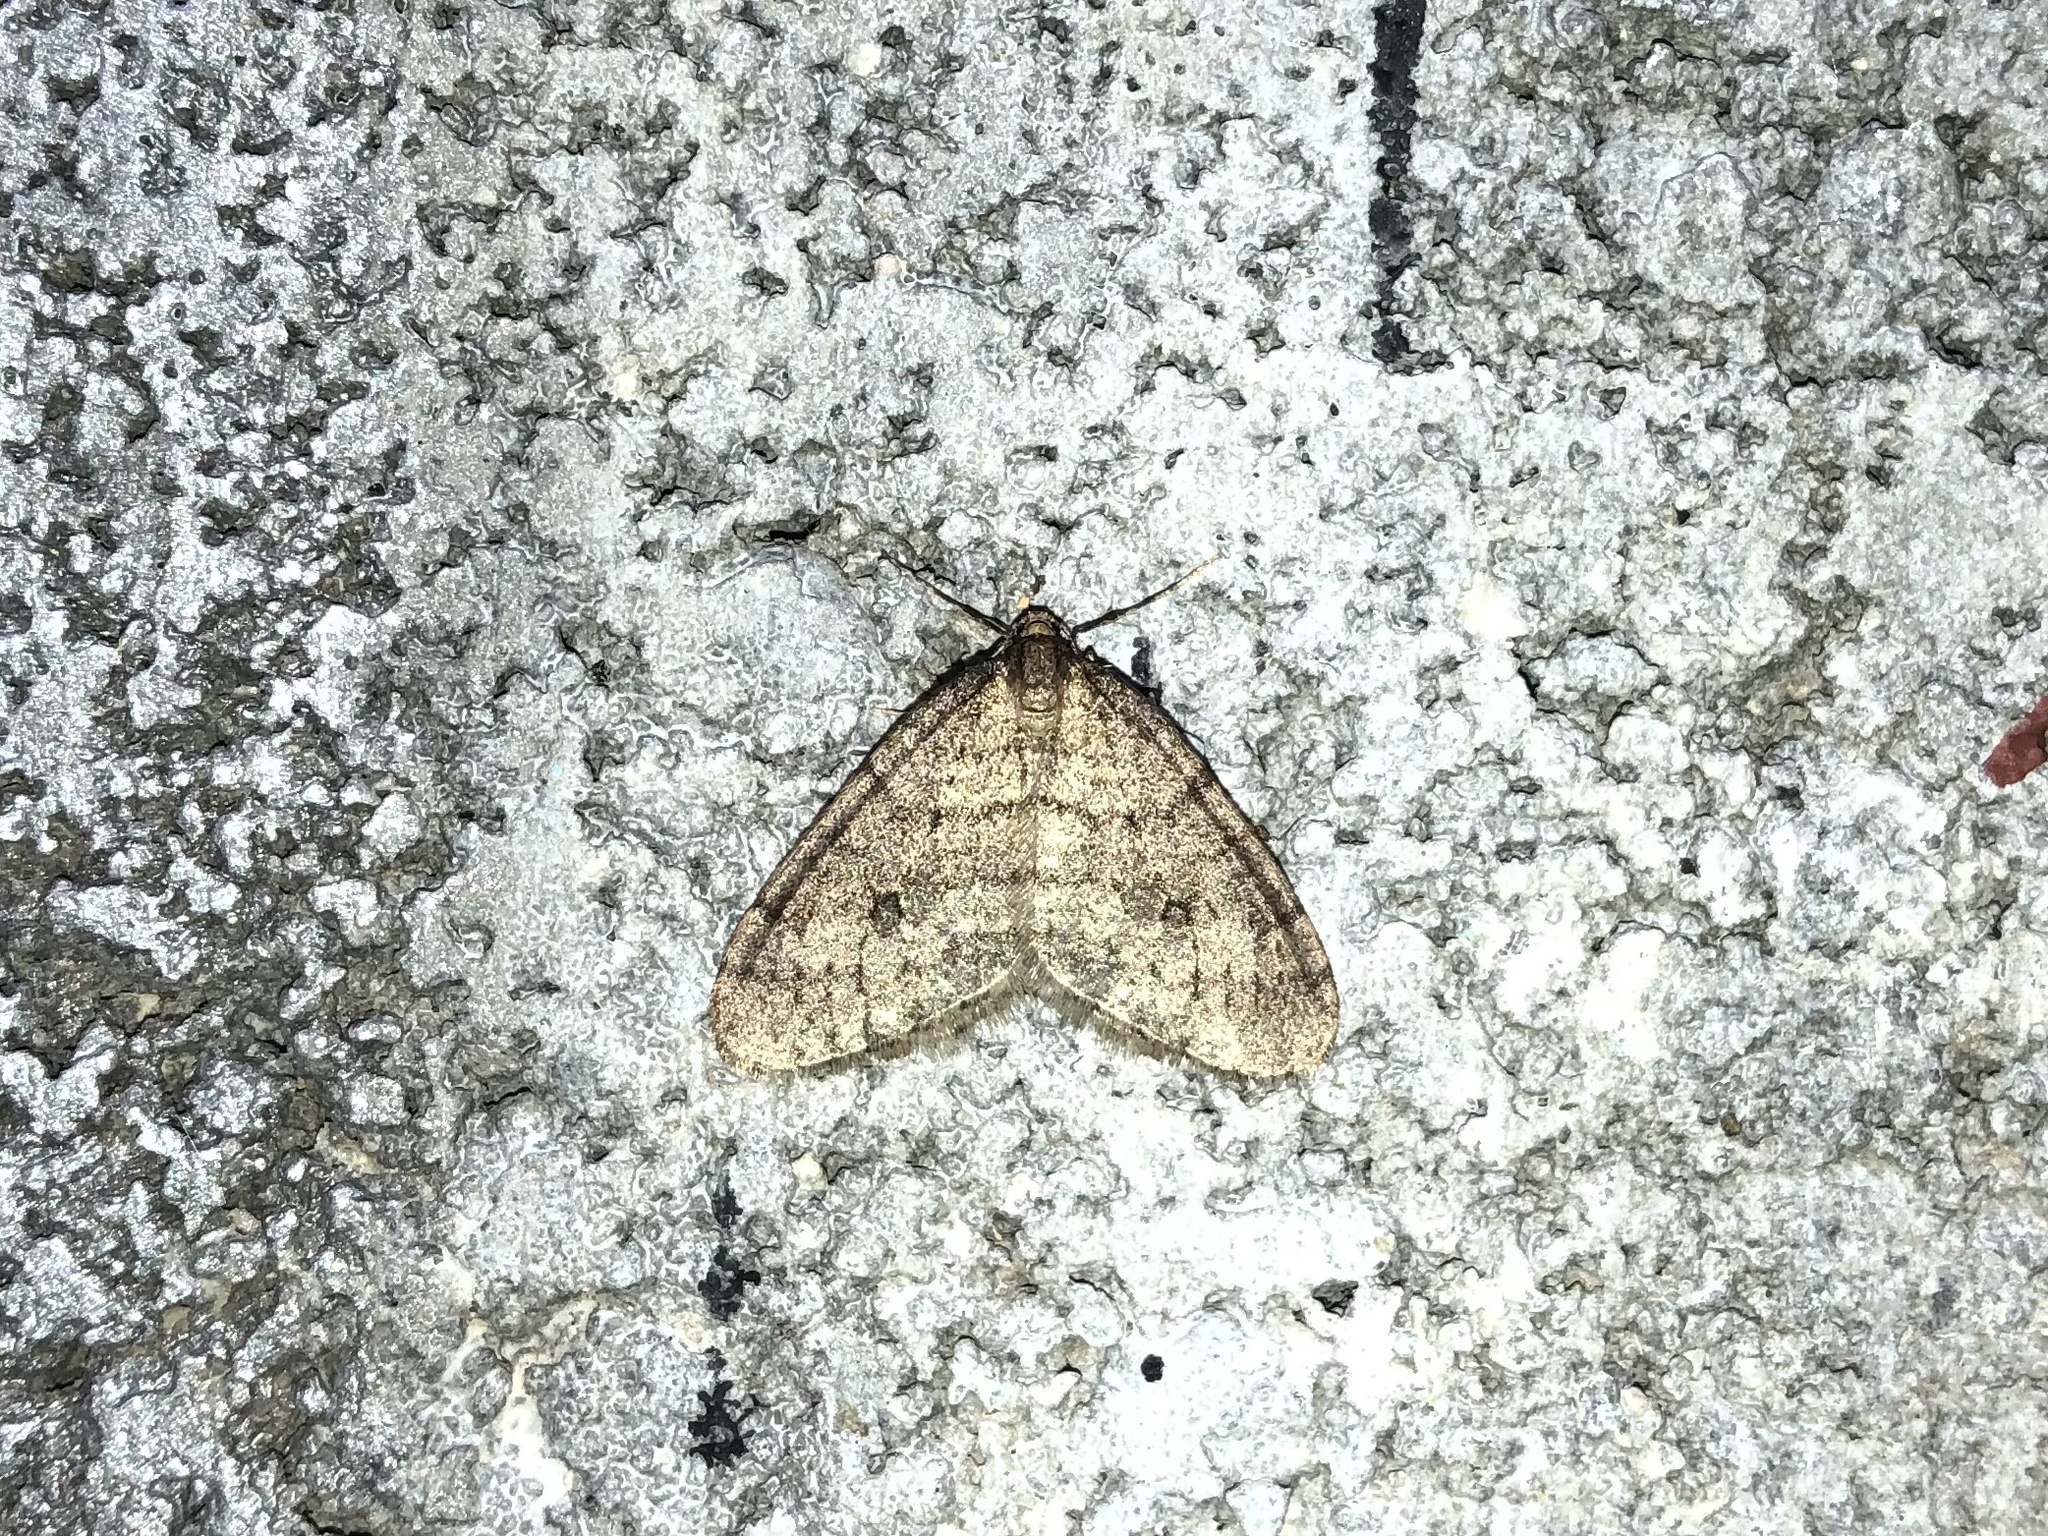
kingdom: Animalia
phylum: Arthropoda
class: Insecta
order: Lepidoptera
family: Geometridae
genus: Operophtera
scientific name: Operophtera brumata
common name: Winter moth
